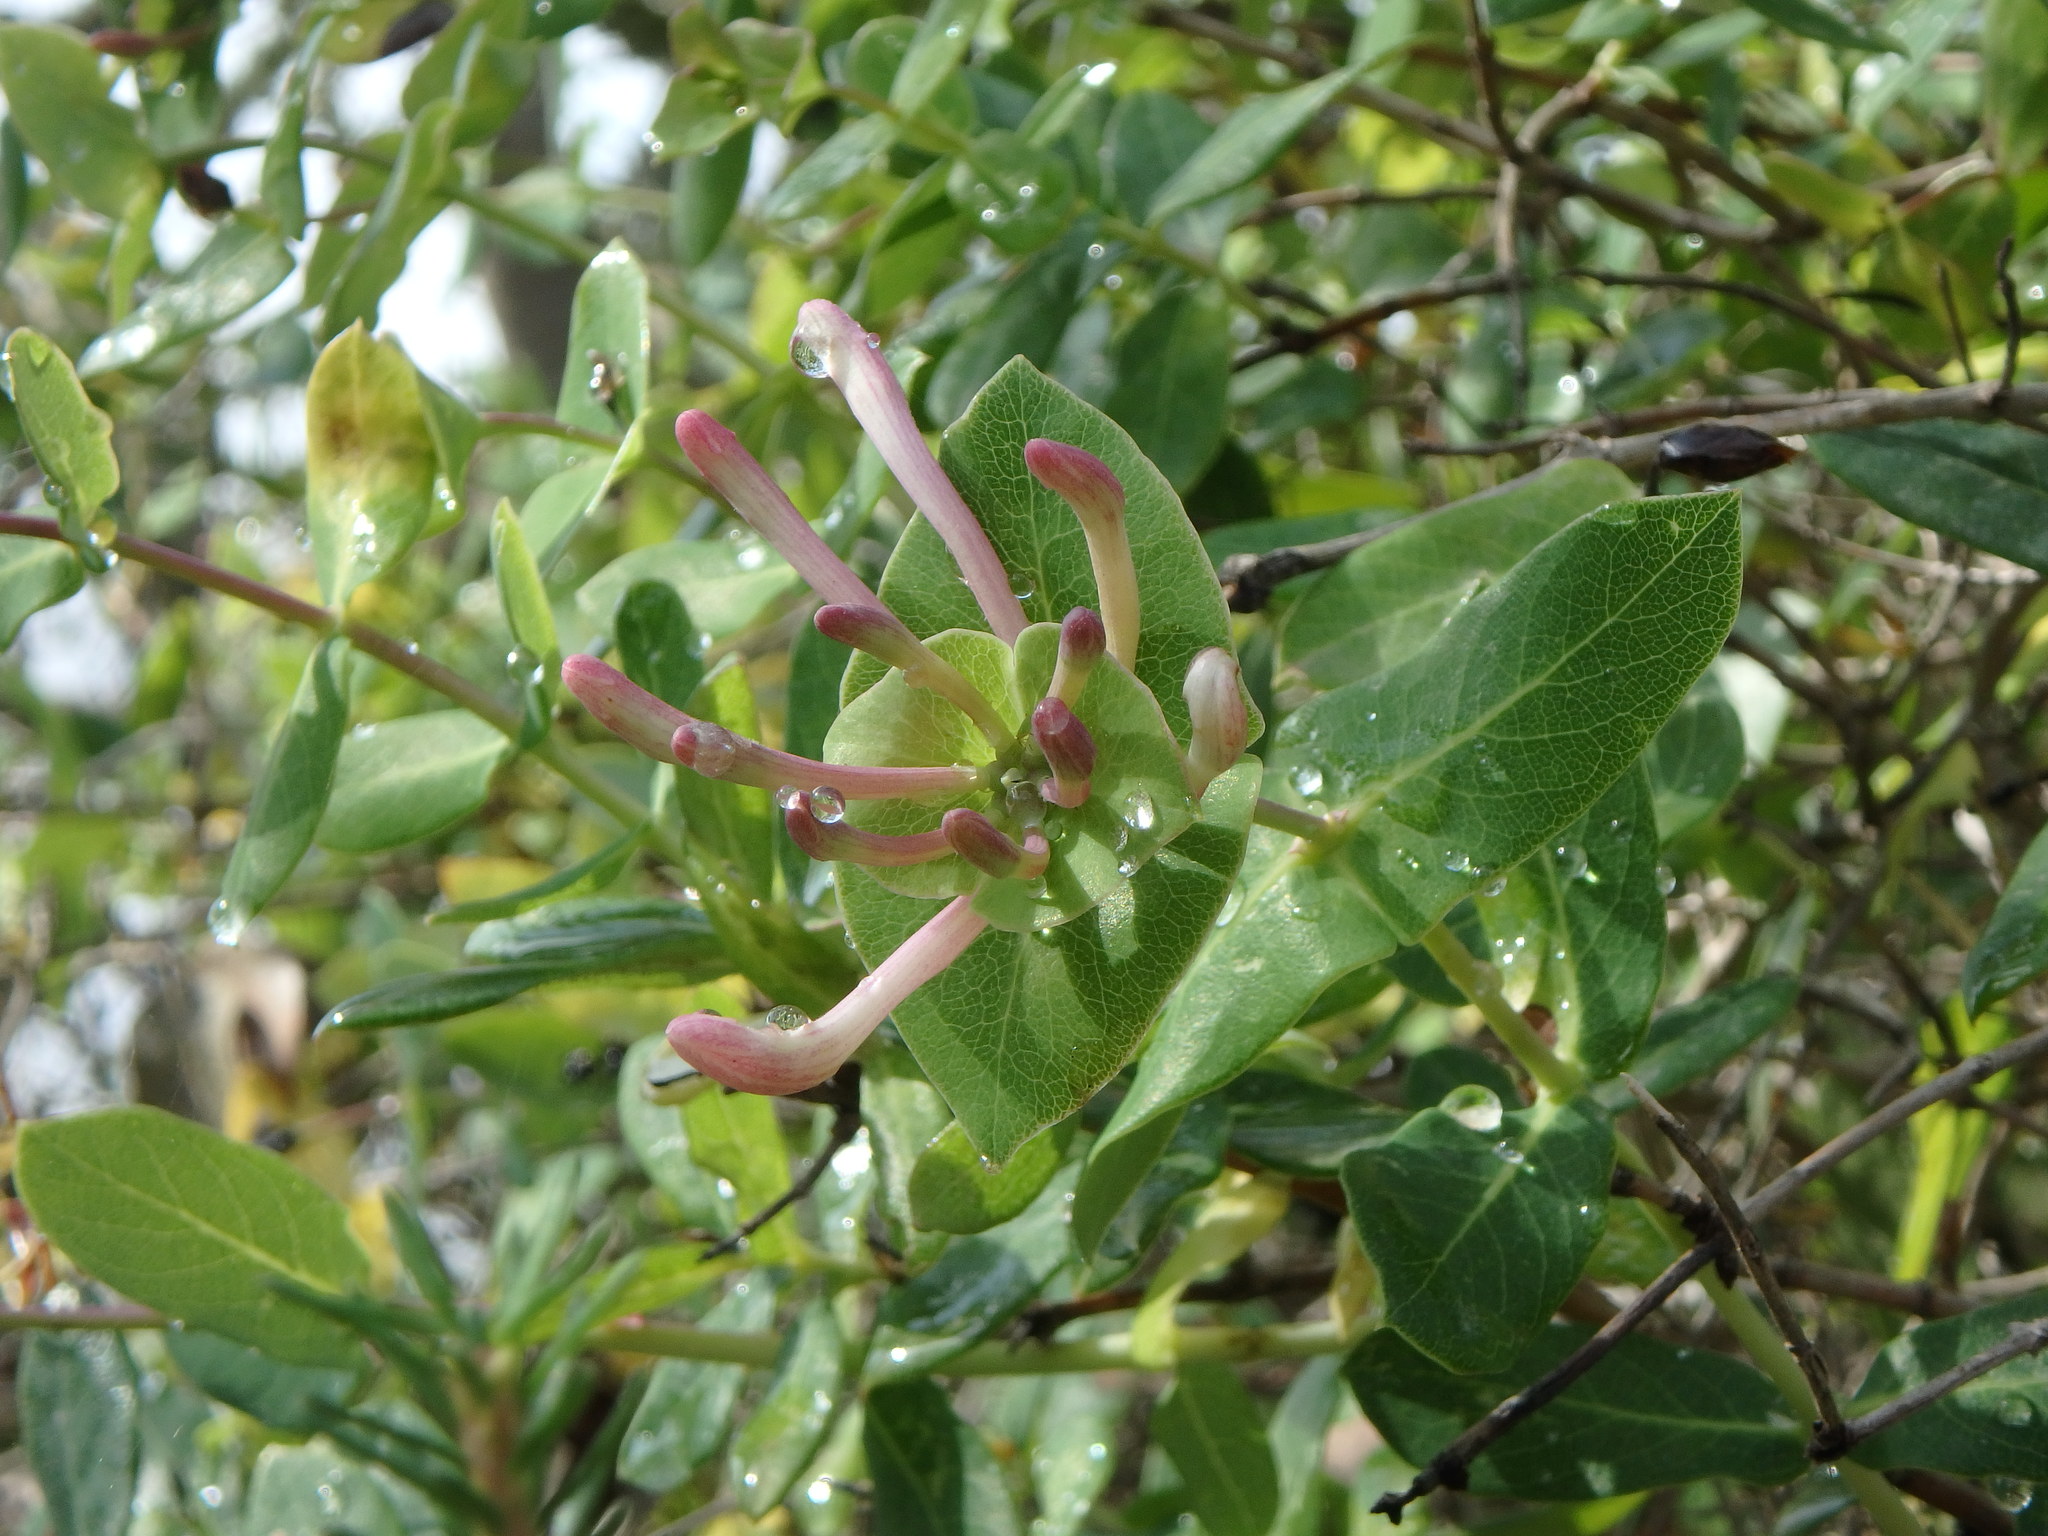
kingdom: Plantae
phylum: Tracheophyta
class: Magnoliopsida
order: Dipsacales
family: Caprifoliaceae
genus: Lonicera
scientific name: Lonicera implexa
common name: Minorca honeysuckle
